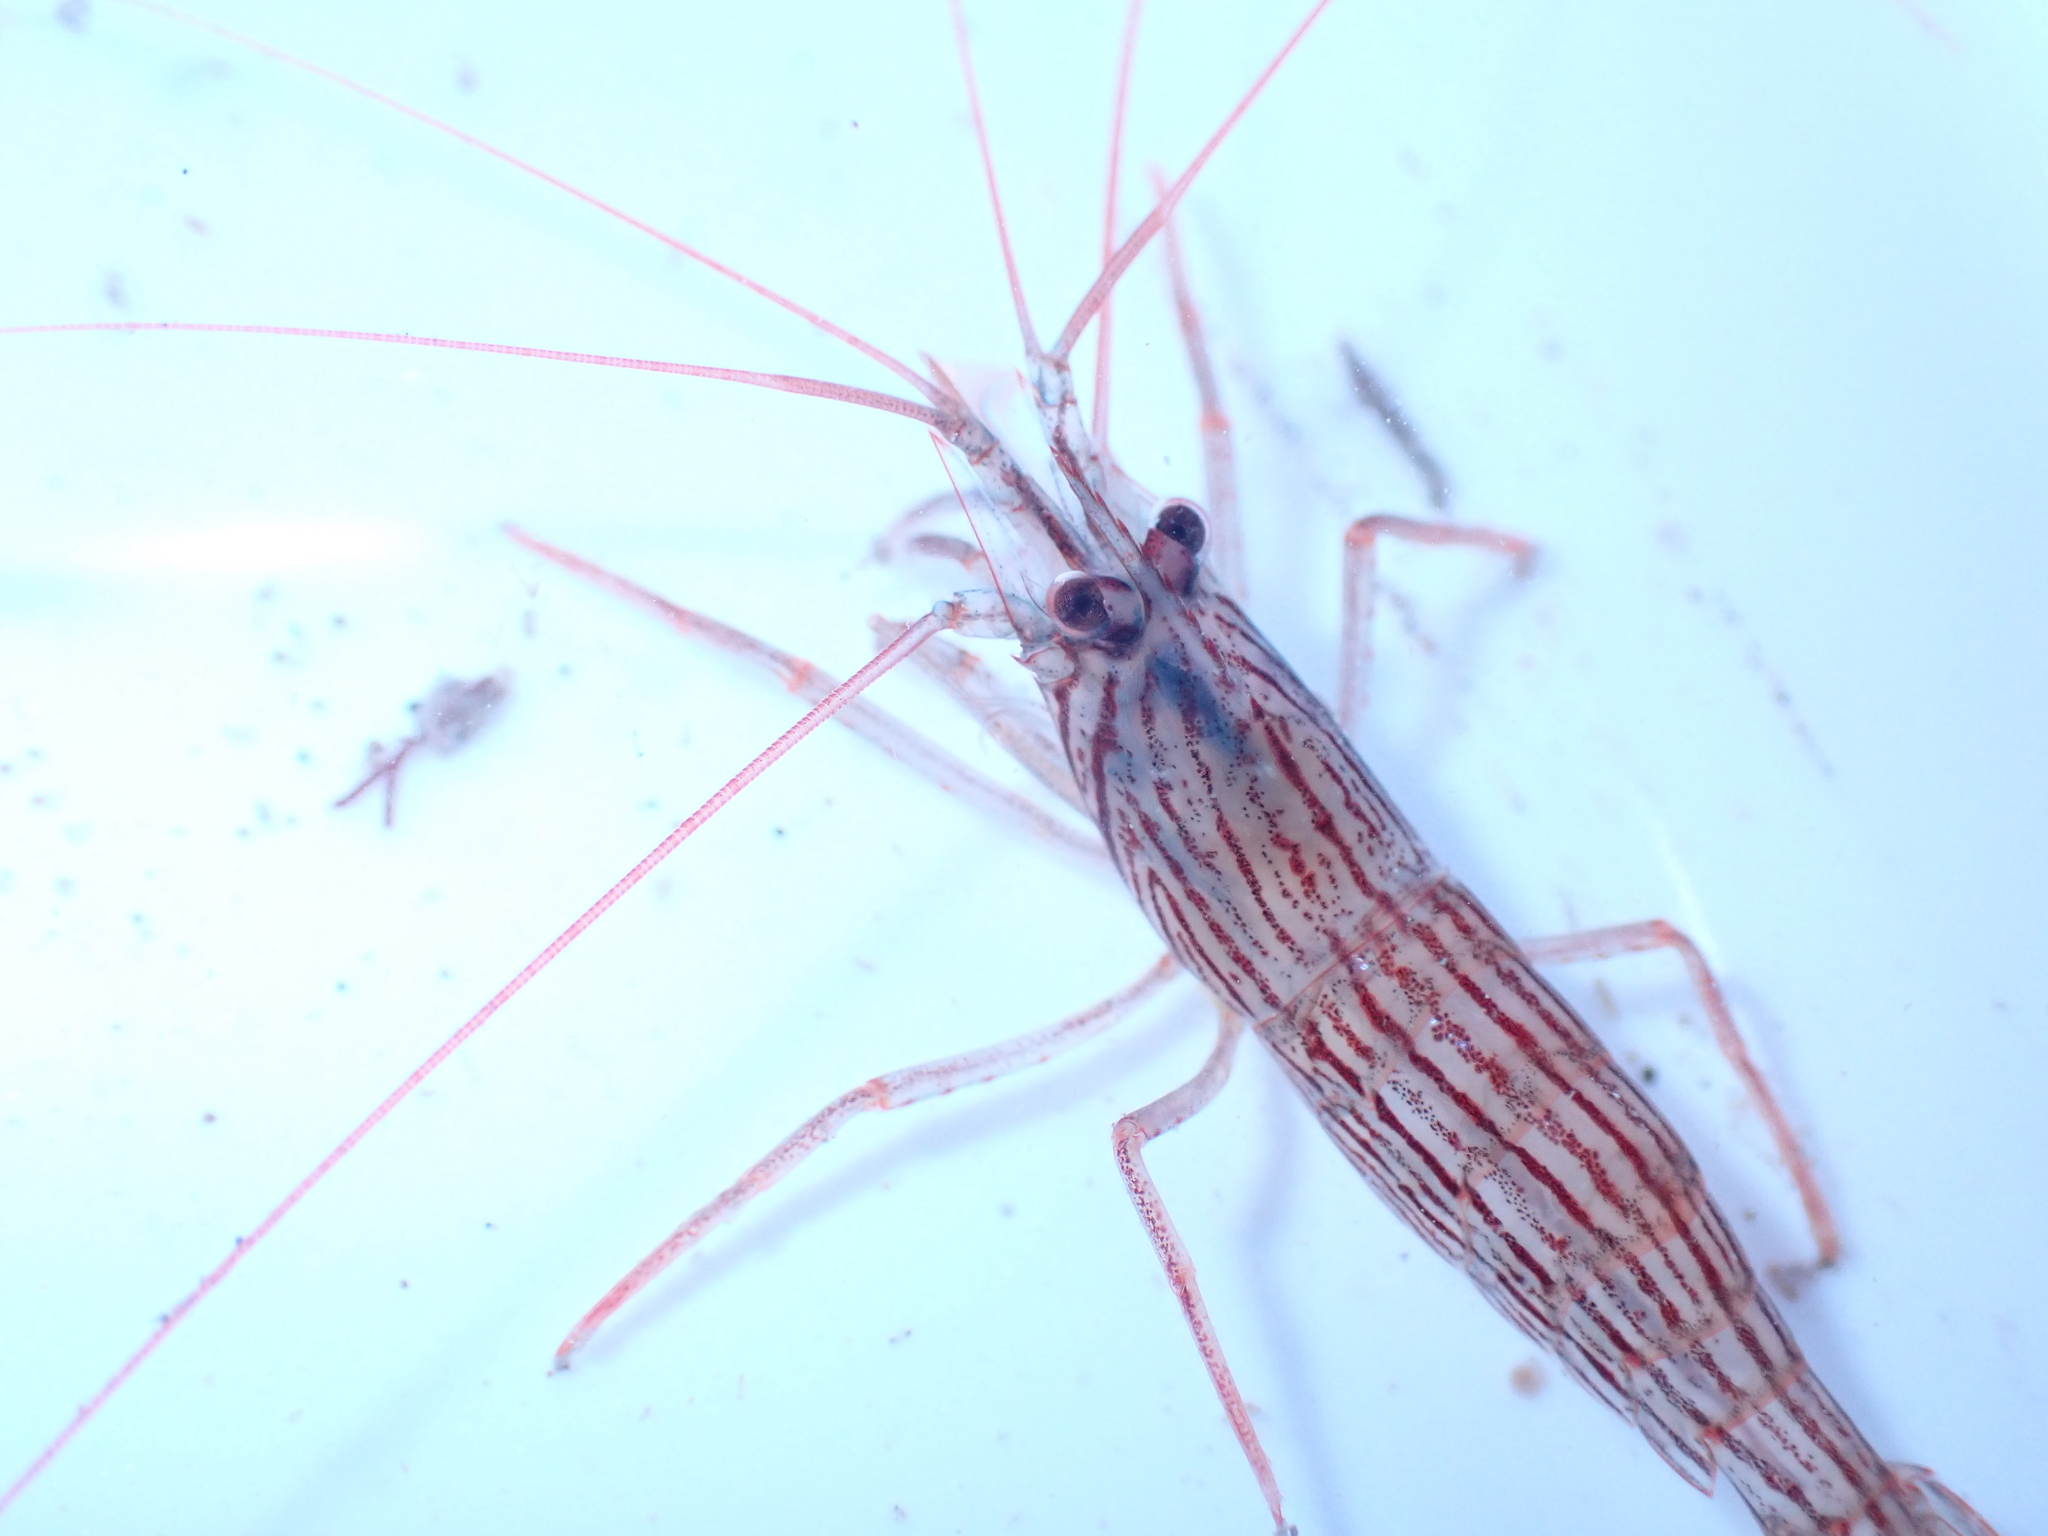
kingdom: Animalia
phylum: Arthropoda
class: Malacostraca
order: Decapoda
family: Lysmatidae
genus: Lysmata
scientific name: Lysmata vittata
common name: Indian lined shrimp
